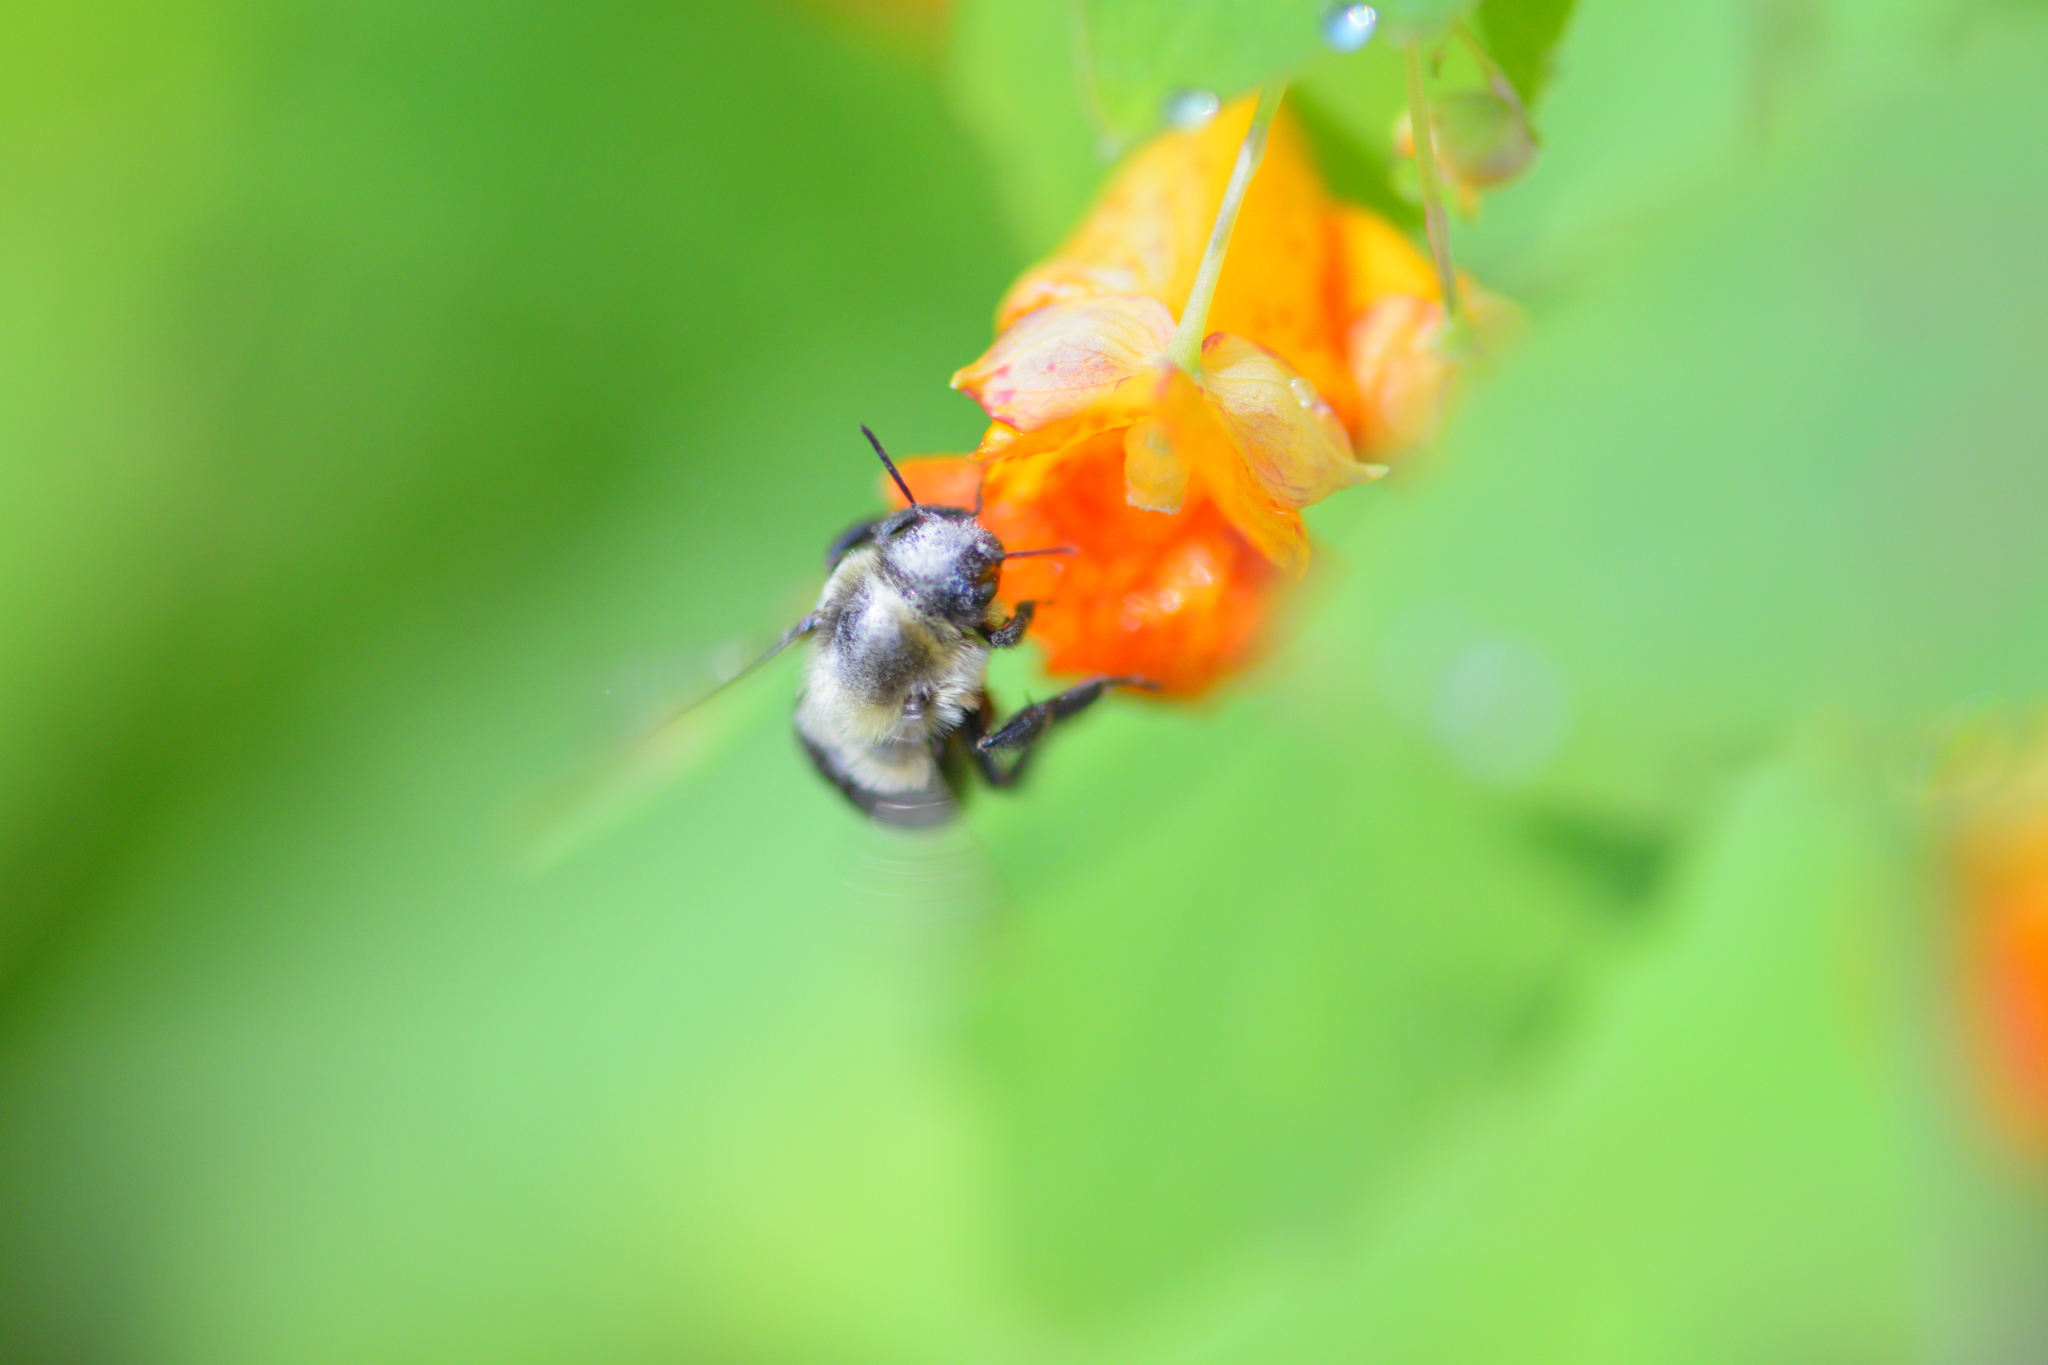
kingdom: Animalia
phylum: Arthropoda
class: Insecta
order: Hymenoptera
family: Apidae
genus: Bombus
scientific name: Bombus impatiens
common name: Common eastern bumble bee
